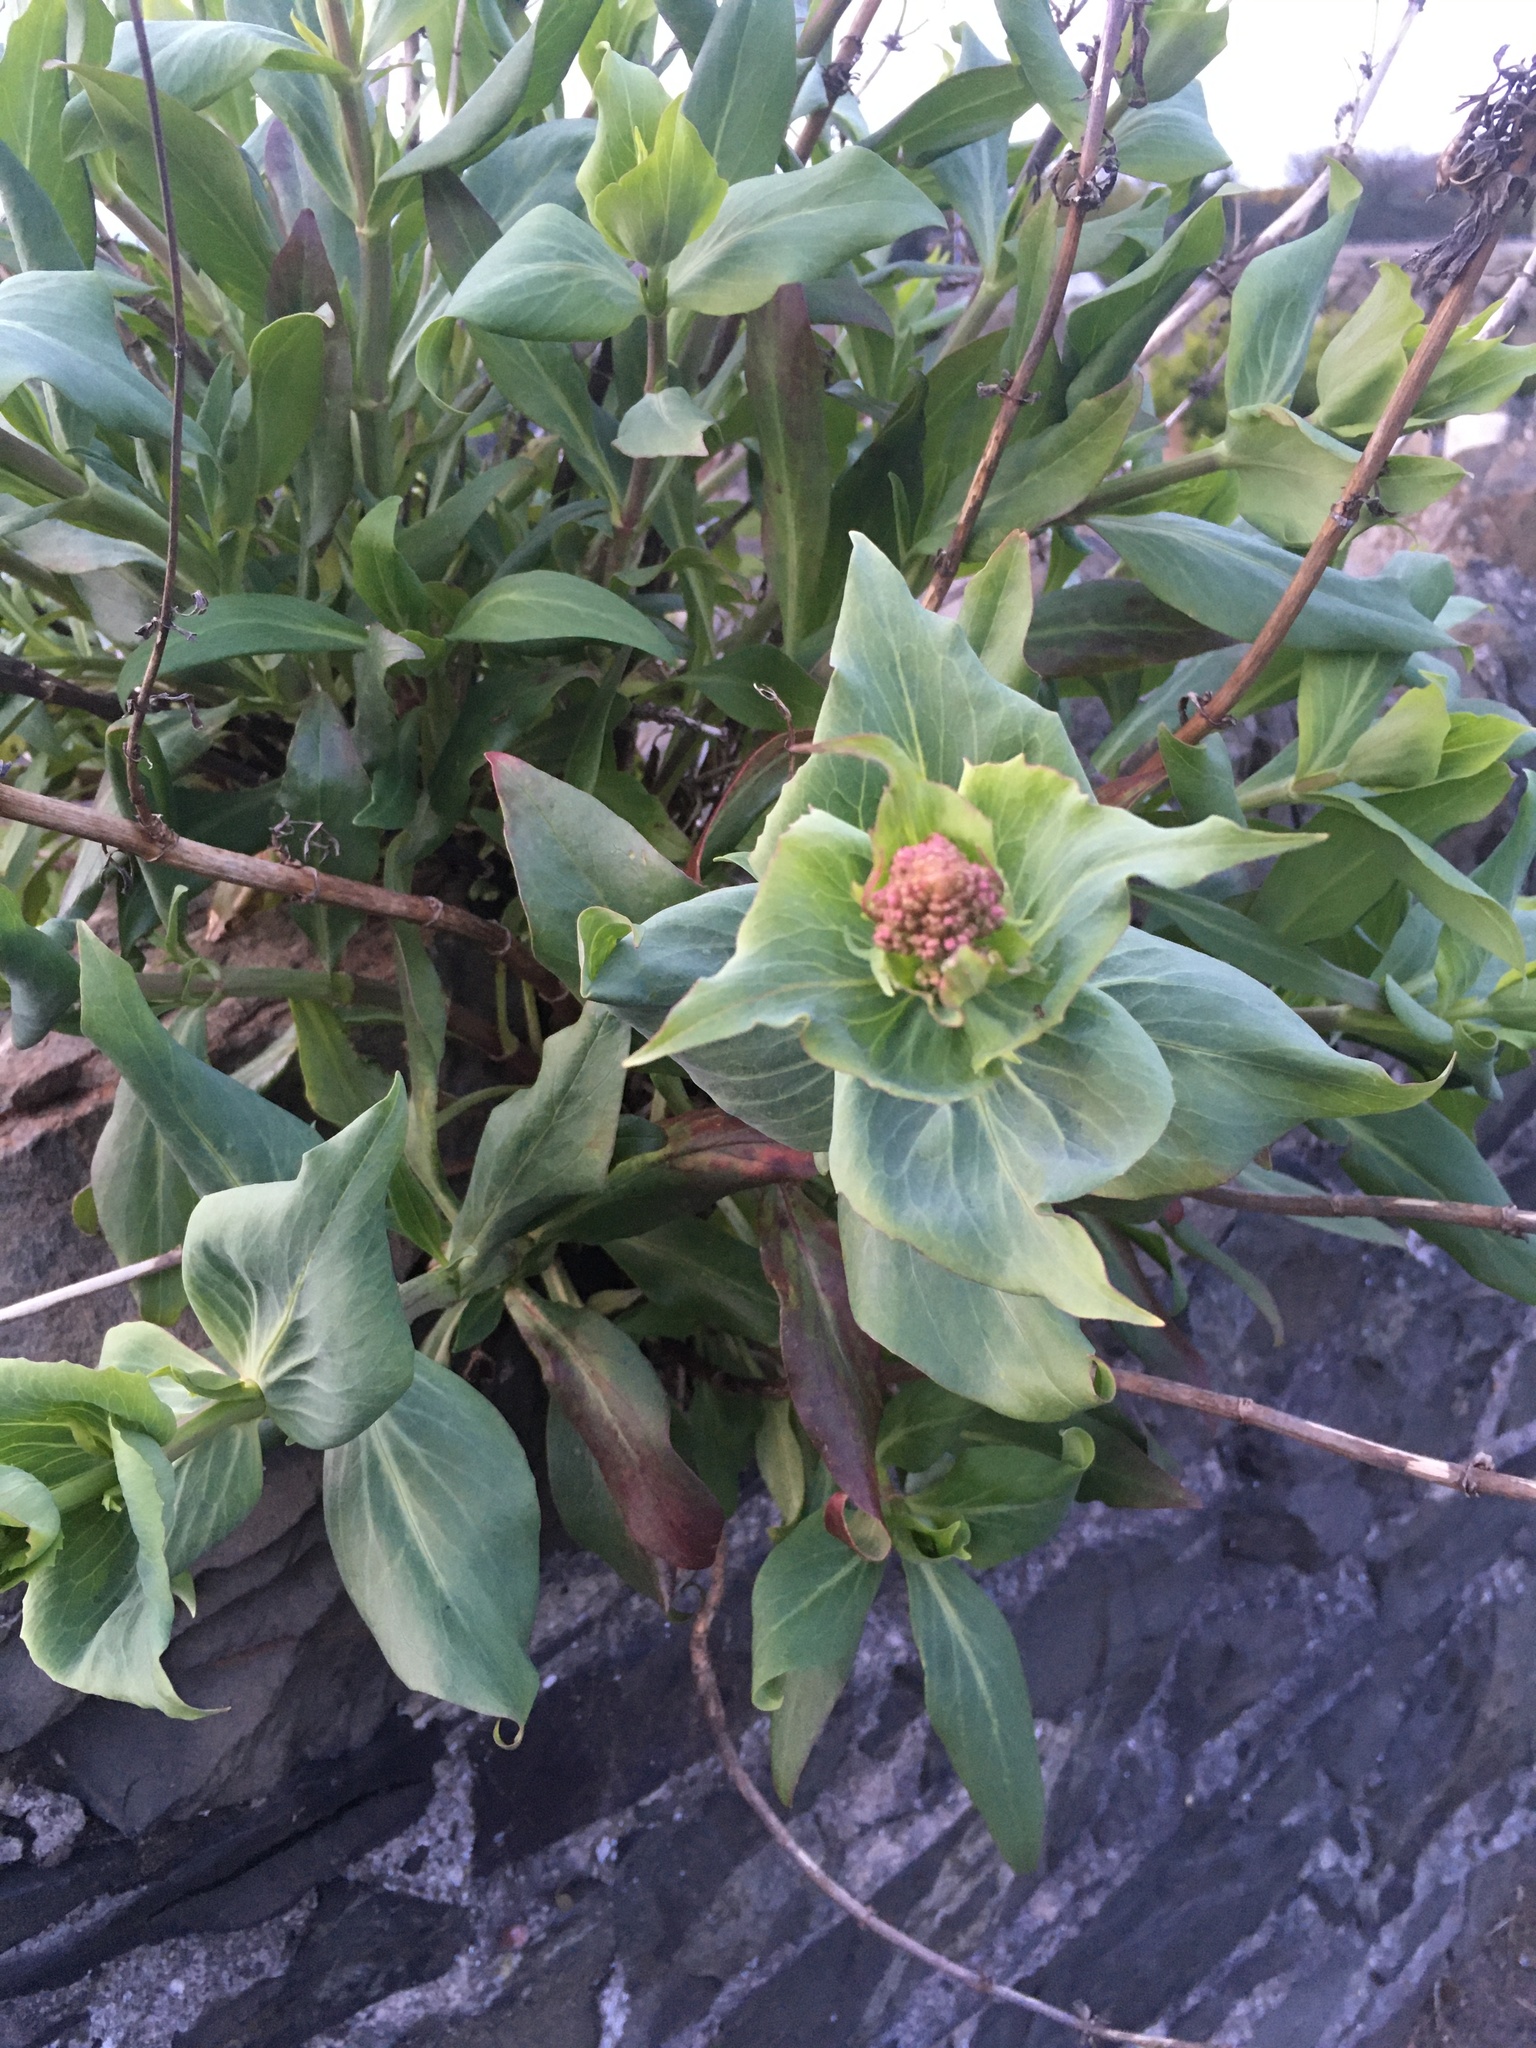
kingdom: Plantae
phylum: Tracheophyta
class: Magnoliopsida
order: Dipsacales
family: Caprifoliaceae
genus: Centranthus
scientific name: Centranthus ruber
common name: Red valerian
